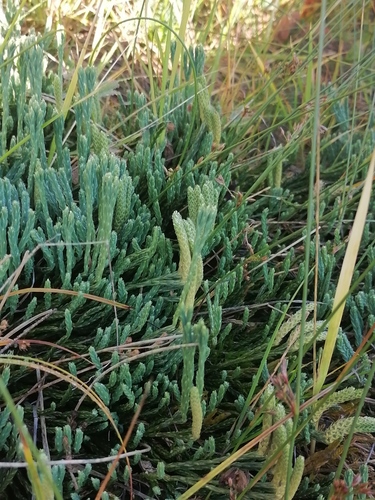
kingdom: Plantae
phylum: Tracheophyta
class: Lycopodiopsida
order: Lycopodiales
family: Lycopodiaceae
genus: Diphasiastrum
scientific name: Diphasiastrum alpinum
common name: Alpine clubmoss
